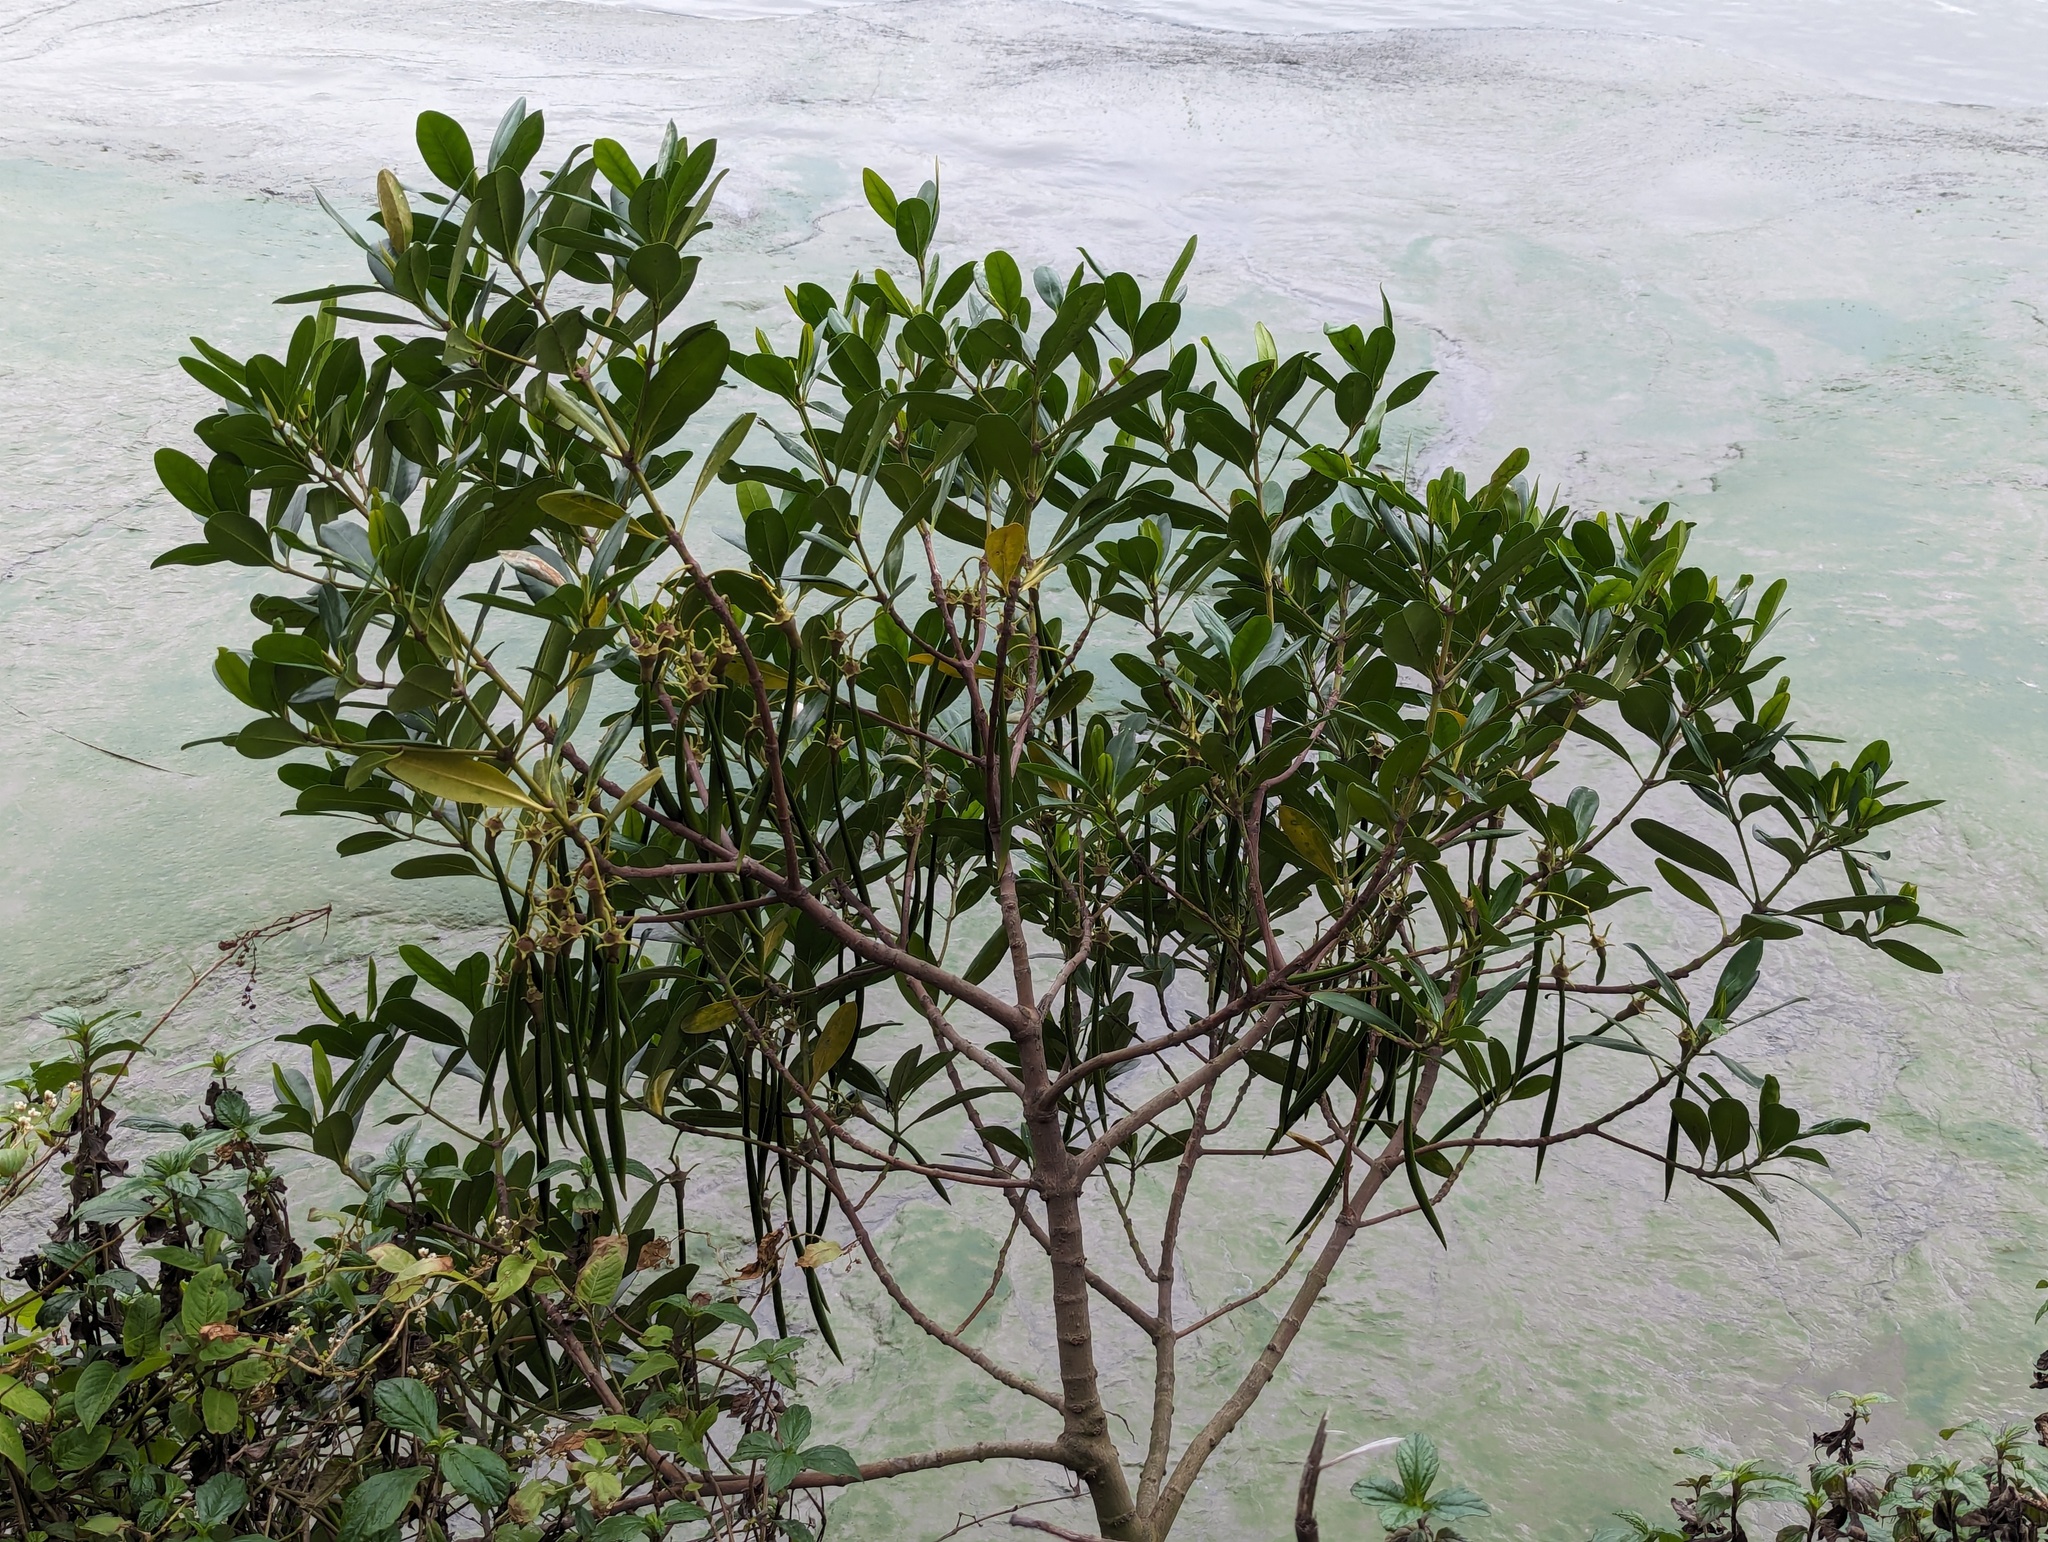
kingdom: Plantae
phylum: Tracheophyta
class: Magnoliopsida
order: Malpighiales
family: Rhizophoraceae
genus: Kandelia
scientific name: Kandelia obovata
